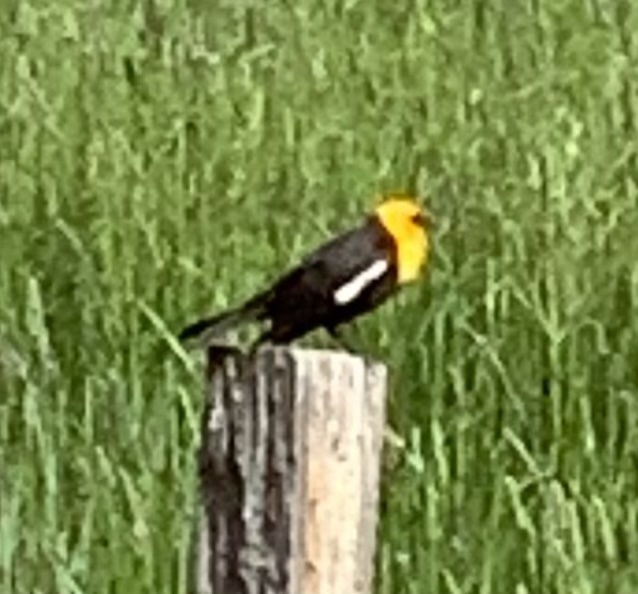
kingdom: Animalia
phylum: Chordata
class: Aves
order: Passeriformes
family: Icteridae
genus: Xanthocephalus
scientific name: Xanthocephalus xanthocephalus
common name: Yellow-headed blackbird
